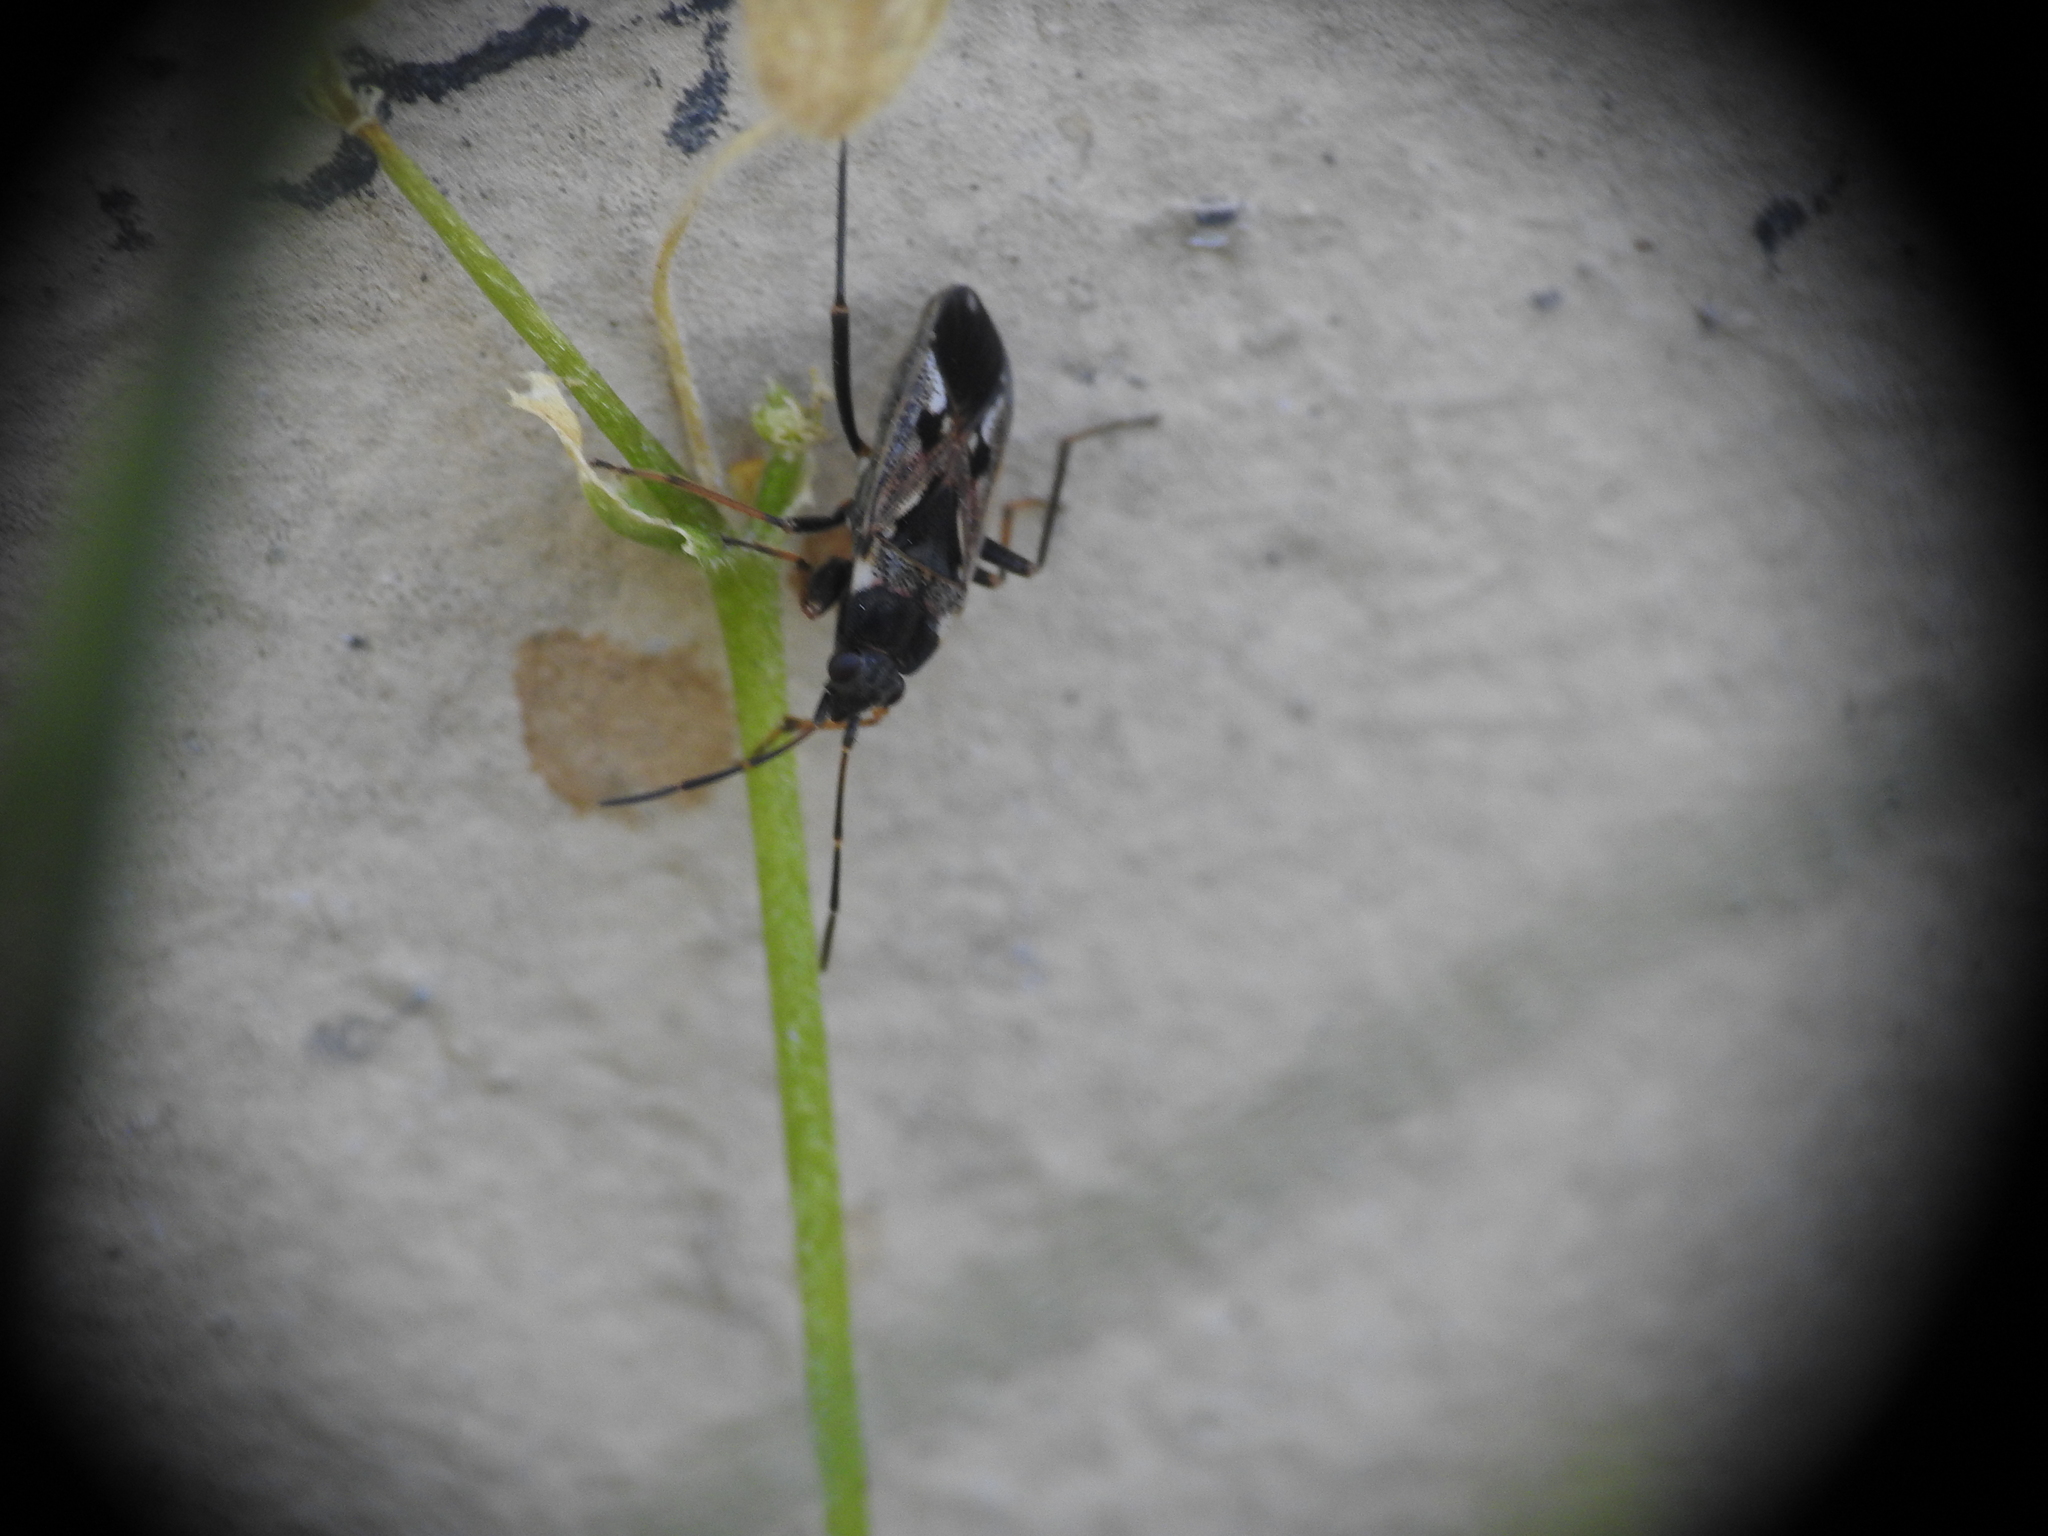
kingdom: Animalia
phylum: Arthropoda
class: Insecta
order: Hemiptera
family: Rhyparochromidae
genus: Rhyparochromus
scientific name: Rhyparochromus vulgaris
